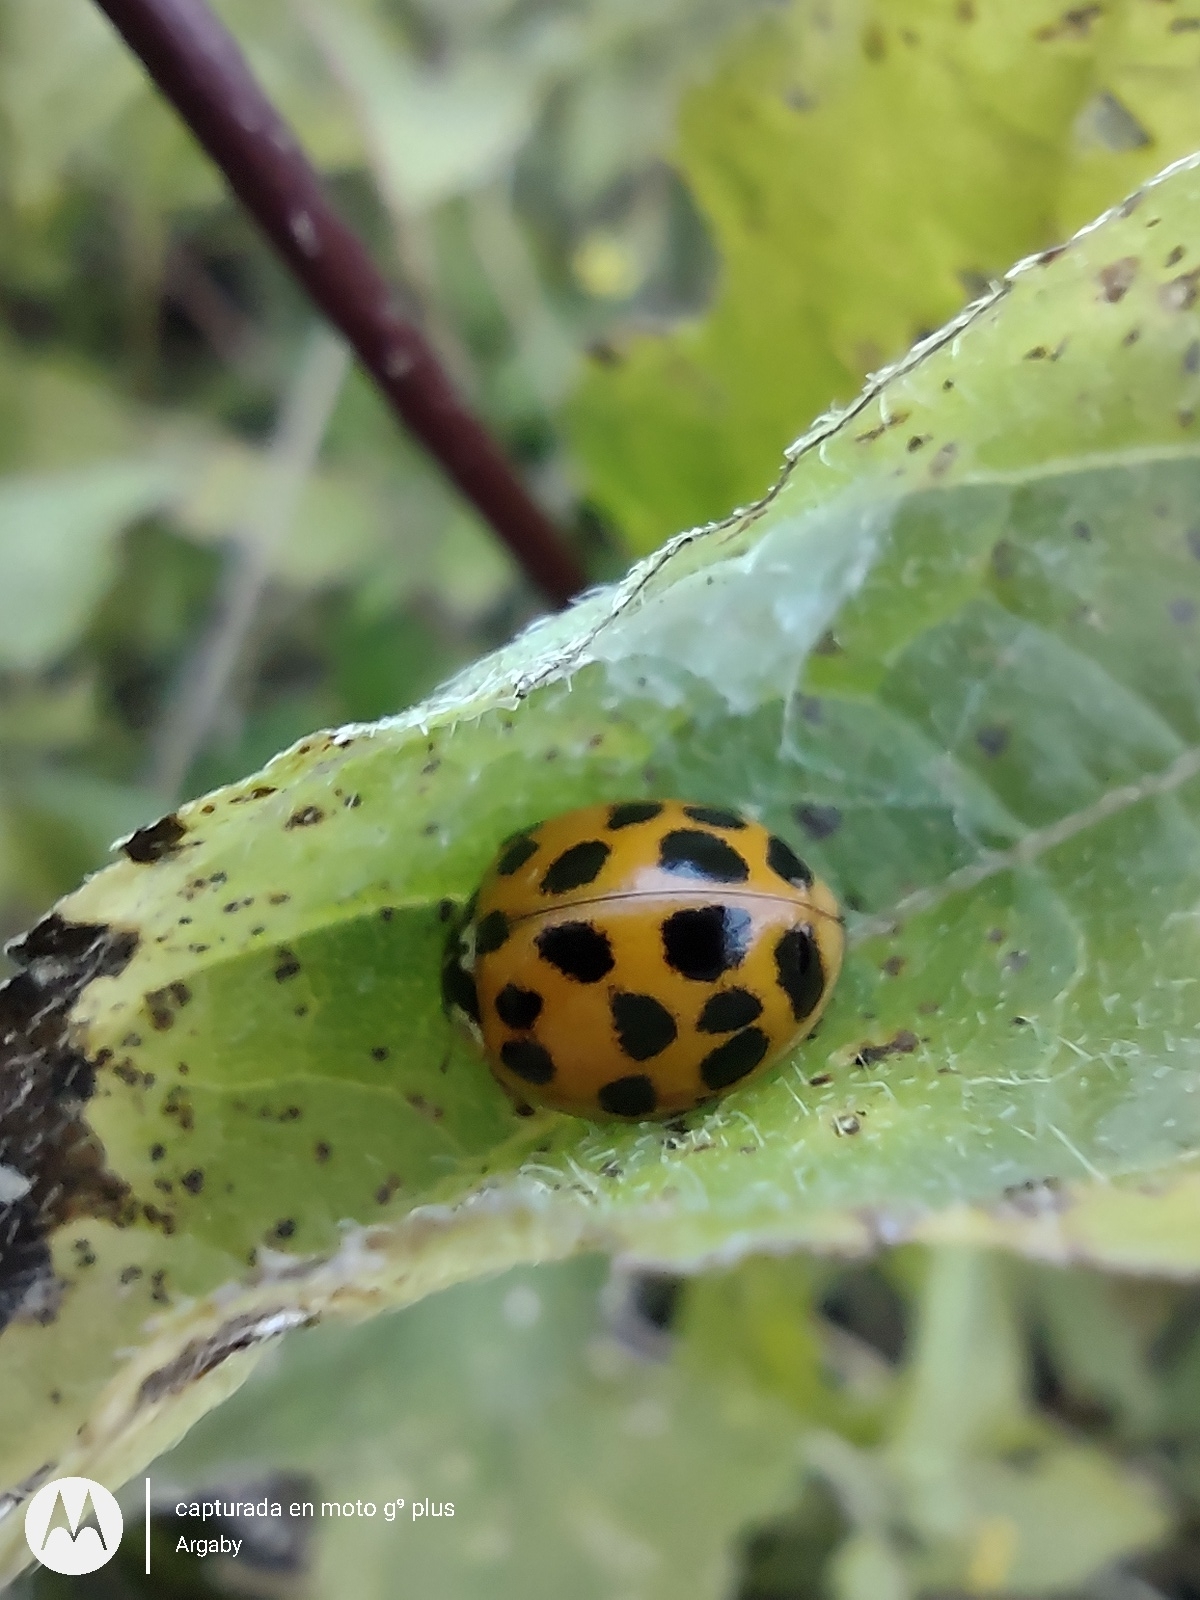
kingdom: Animalia
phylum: Arthropoda
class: Insecta
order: Coleoptera
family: Coccinellidae
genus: Harmonia
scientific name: Harmonia axyridis
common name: Harlequin ladybird
